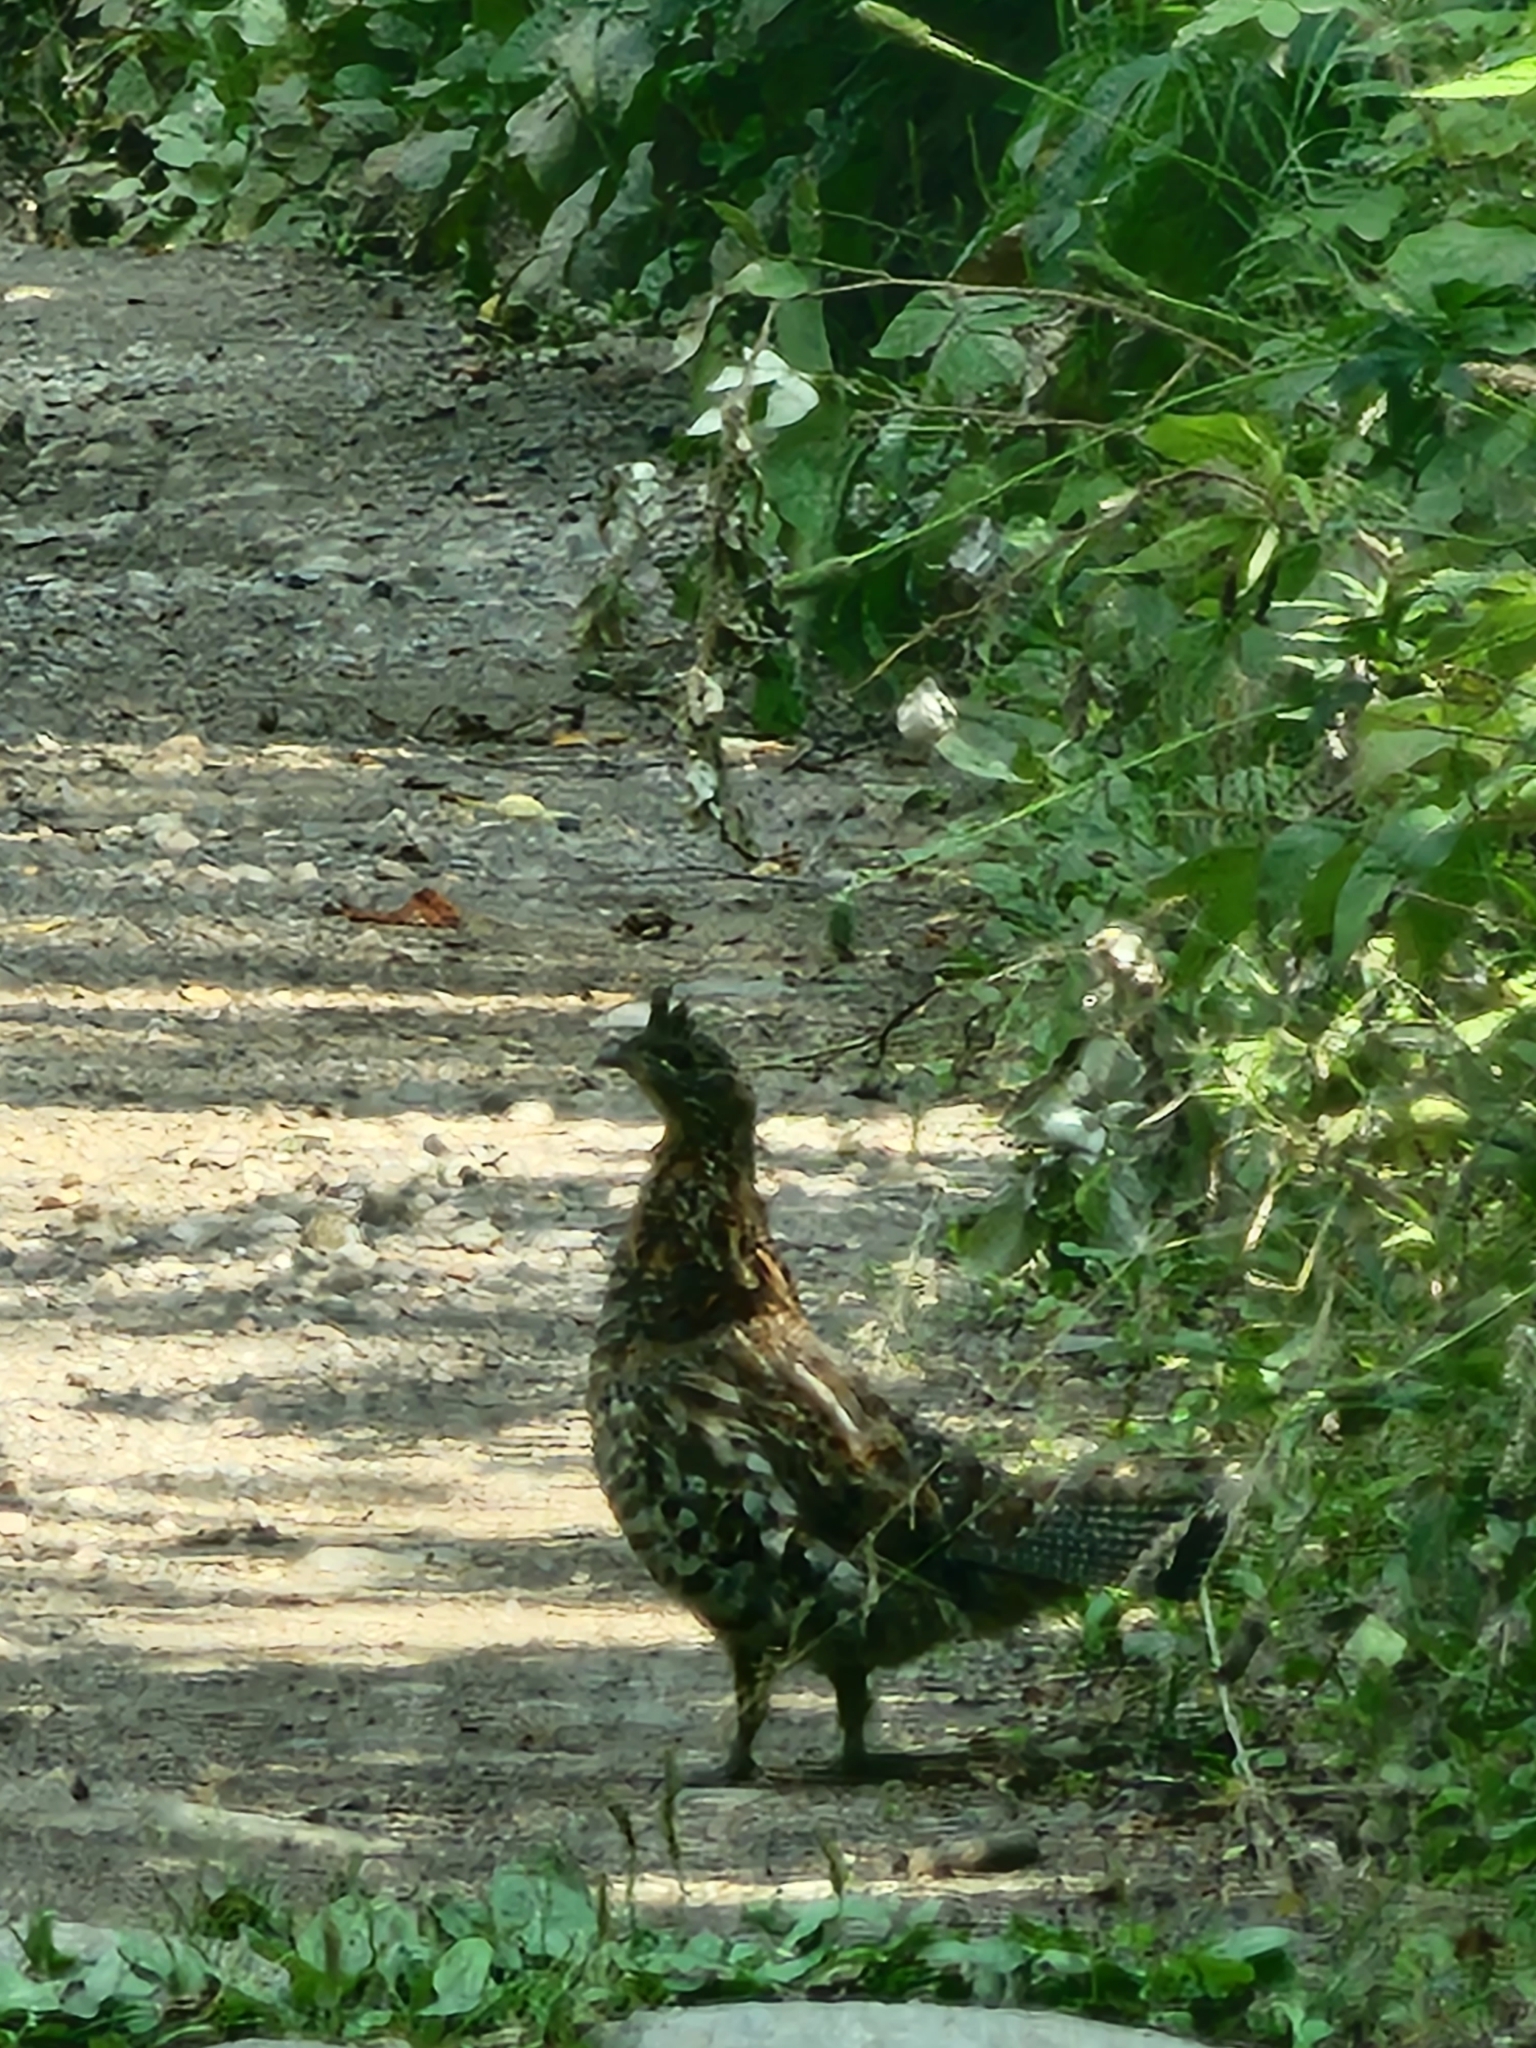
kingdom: Animalia
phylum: Chordata
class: Aves
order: Galliformes
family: Phasianidae
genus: Bonasa
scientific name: Bonasa umbellus
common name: Ruffed grouse
